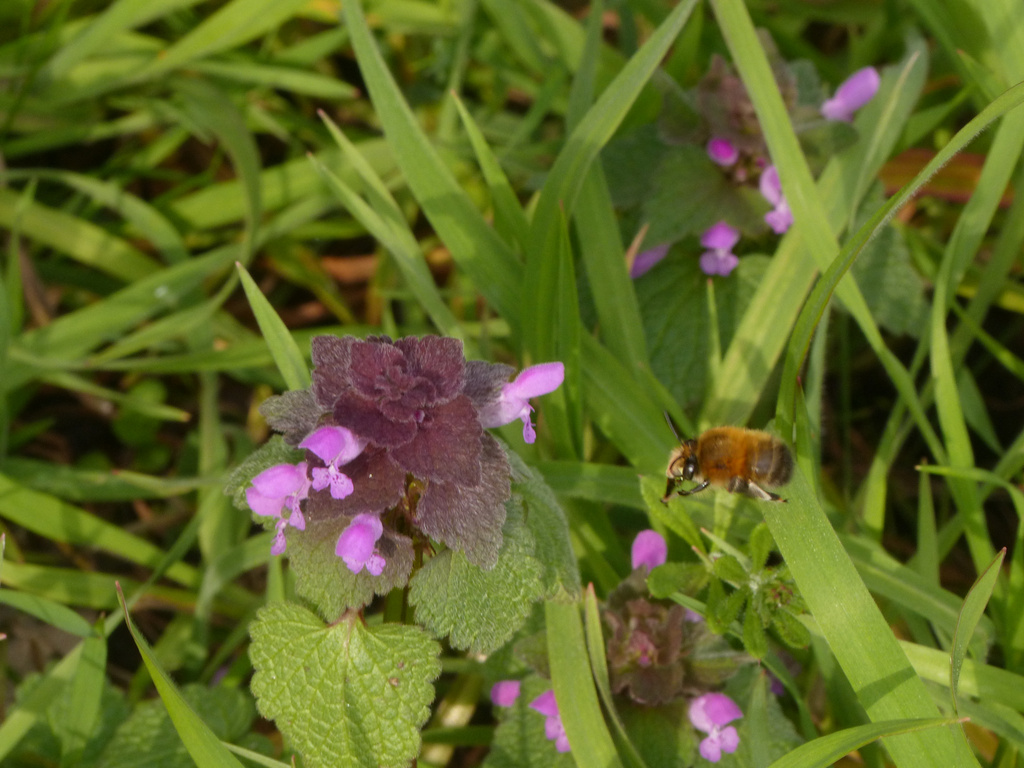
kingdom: Animalia
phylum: Arthropoda
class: Insecta
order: Hymenoptera
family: Apidae
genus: Anthophora
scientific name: Anthophora plumipes
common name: Hairy-footed flower bee
